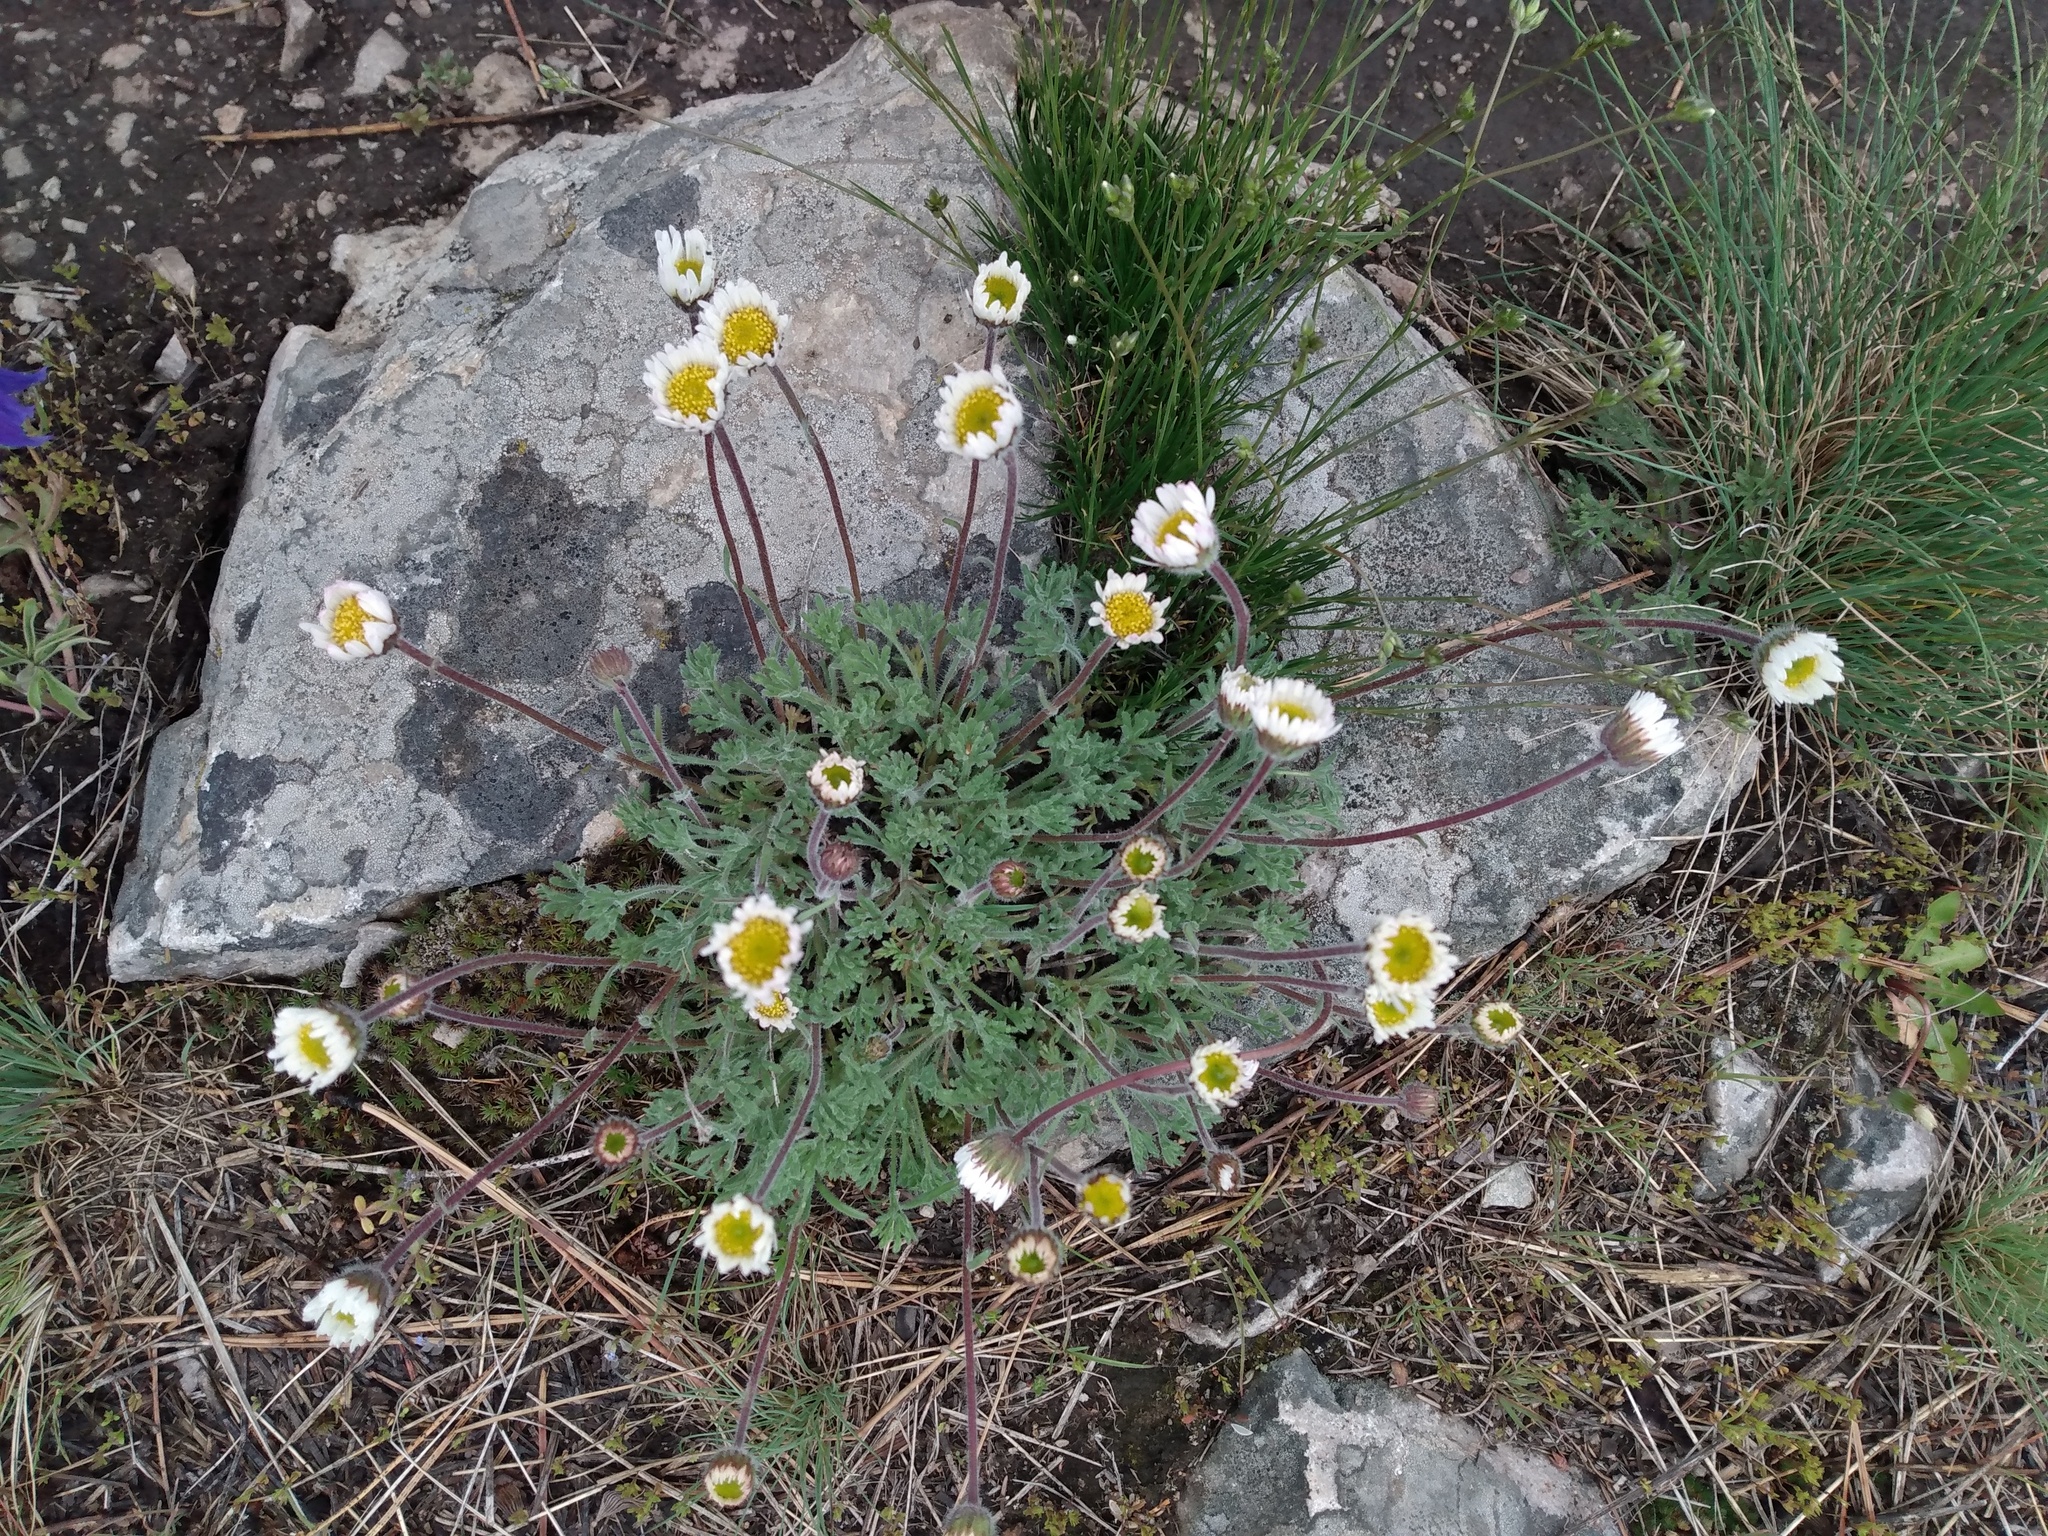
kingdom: Plantae
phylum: Tracheophyta
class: Magnoliopsida
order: Asterales
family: Asteraceae
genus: Erigeron
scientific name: Erigeron compositus
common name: Dwarf mountain fleabane
